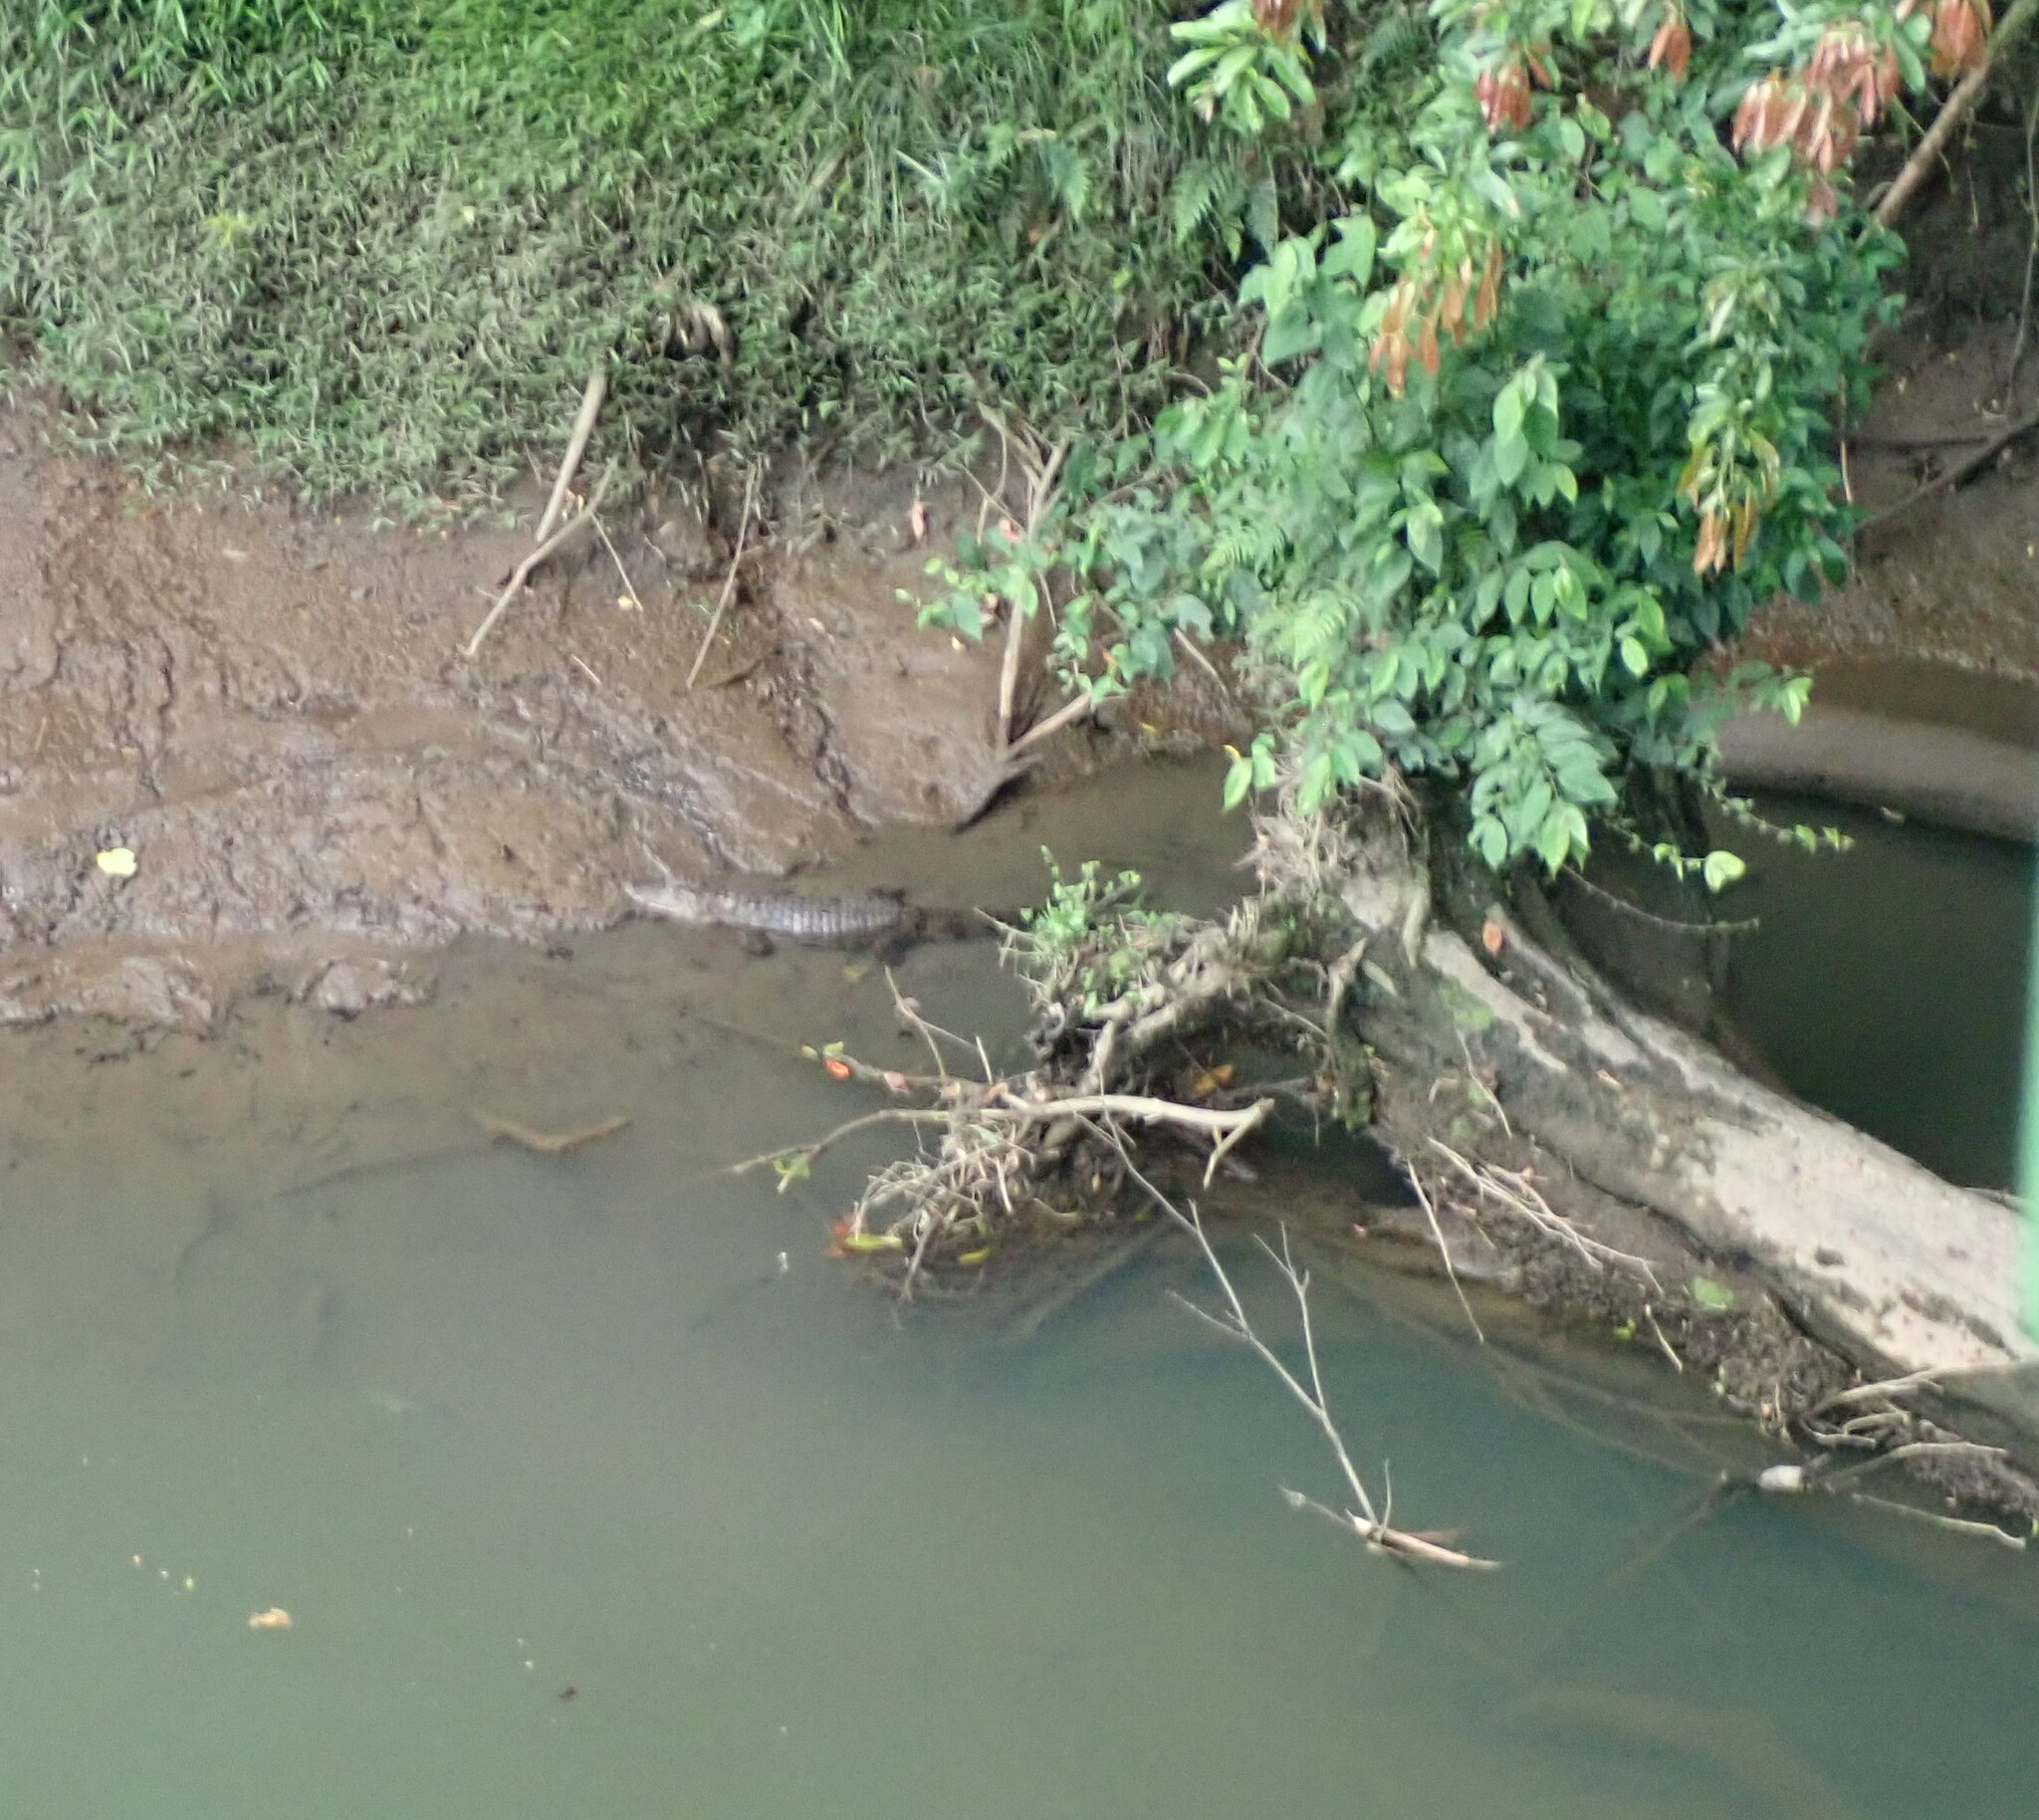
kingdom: Animalia
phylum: Chordata
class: Crocodylia
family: Alligatoridae
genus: Caiman
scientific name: Caiman crocodilus
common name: Common caiman
